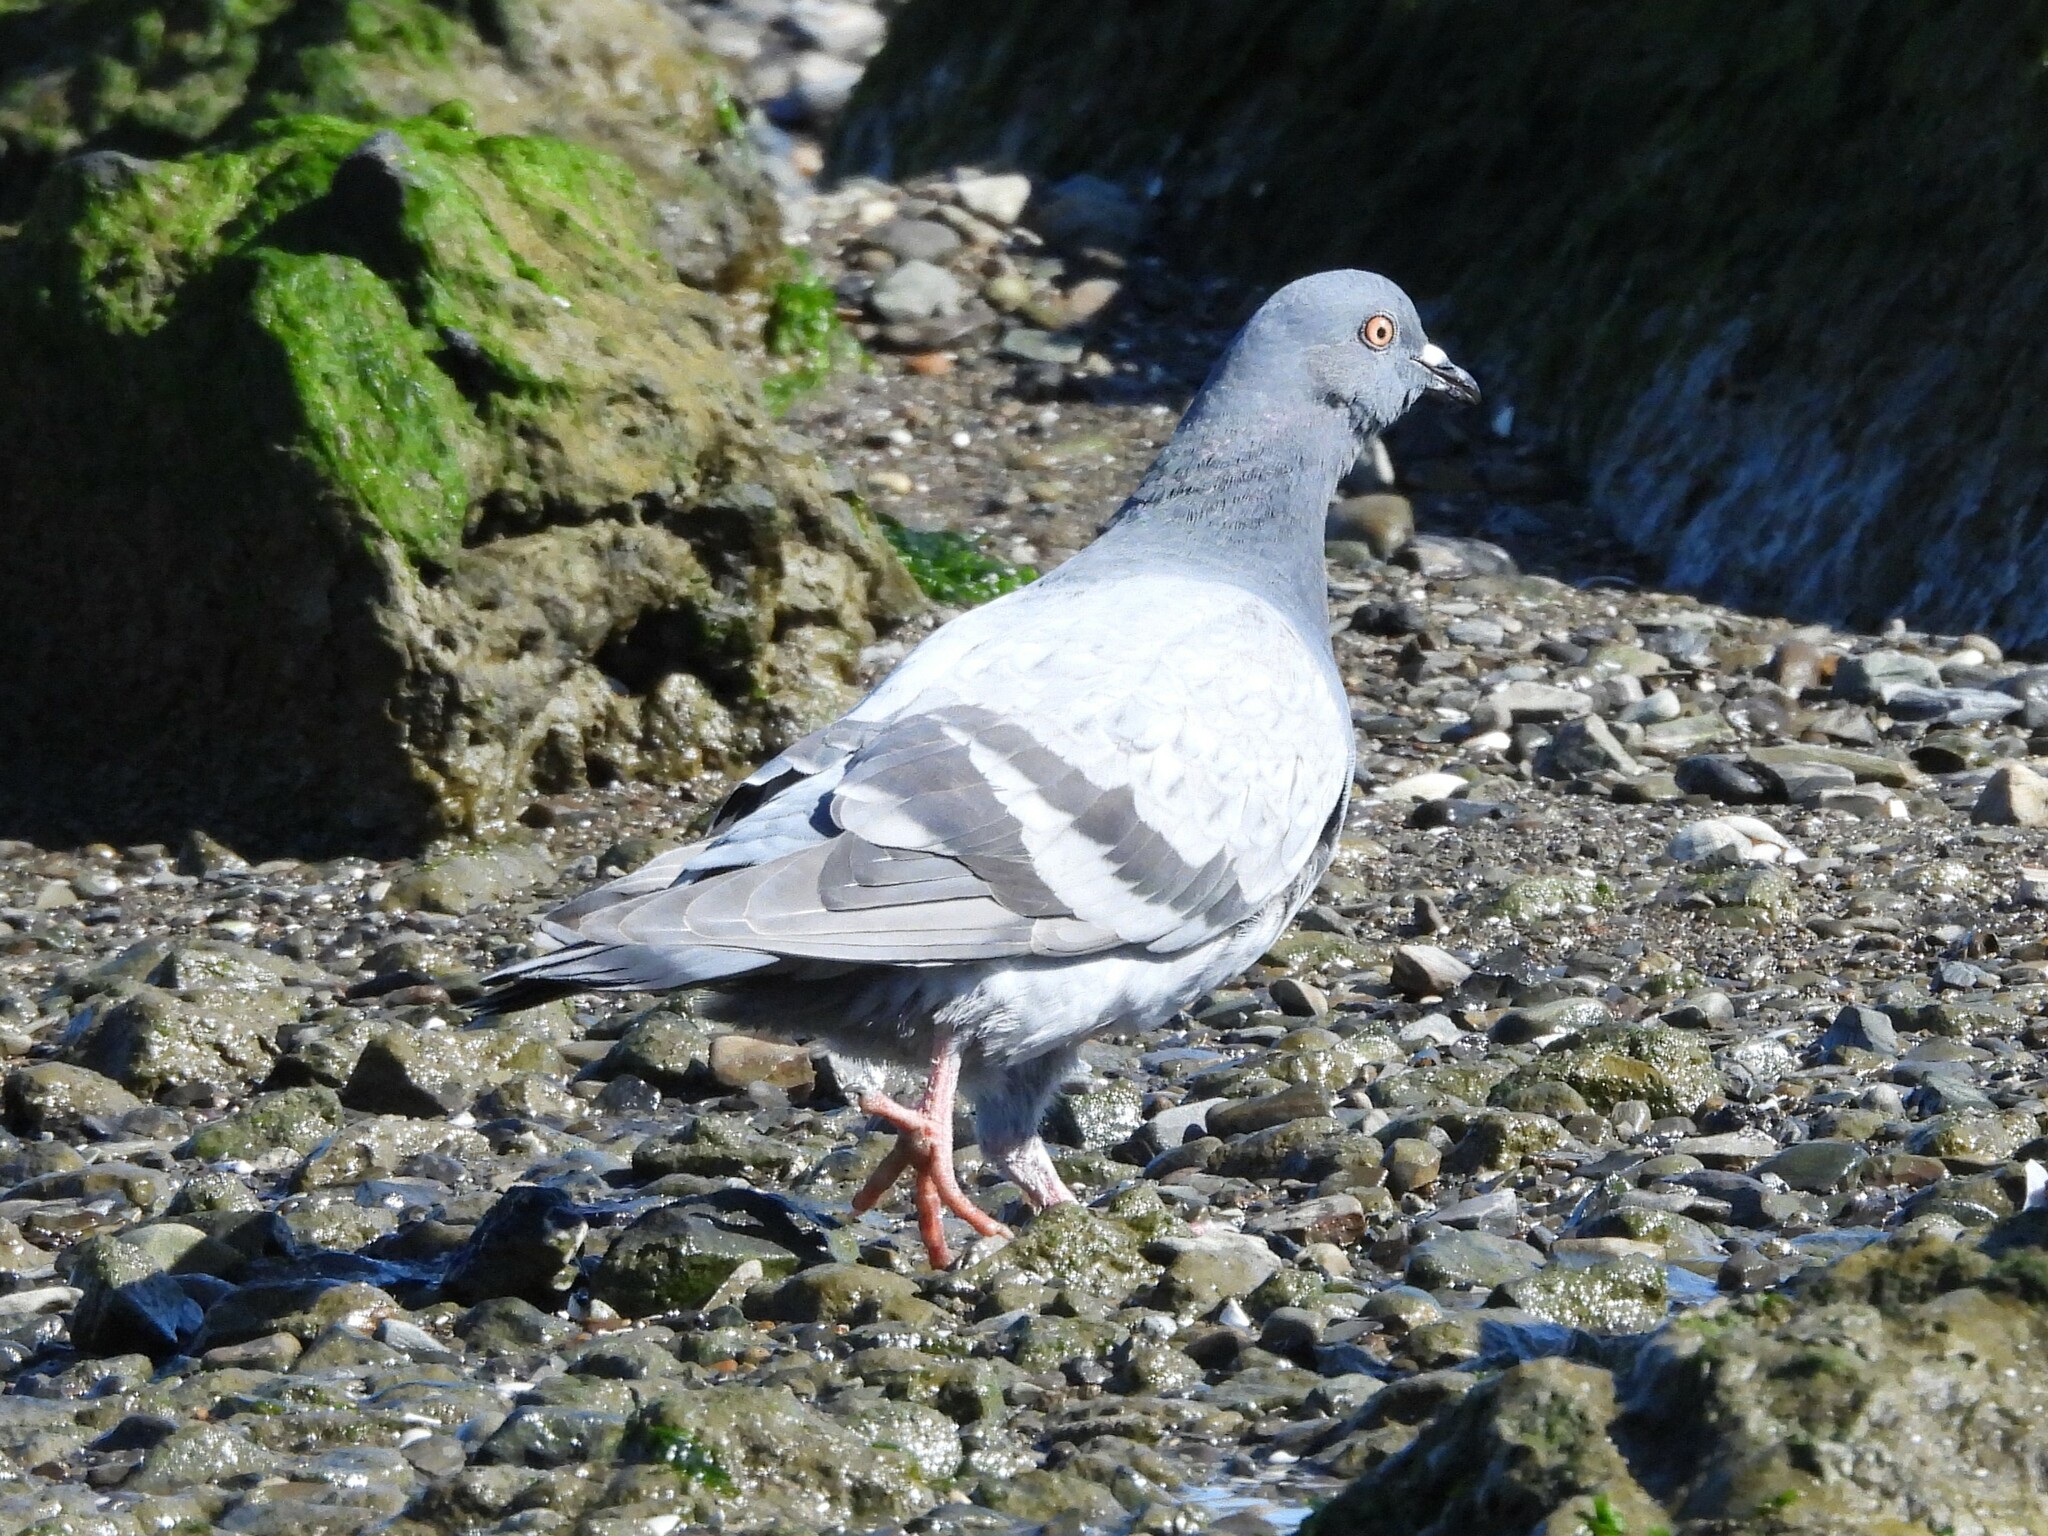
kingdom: Animalia
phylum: Chordata
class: Aves
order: Columbiformes
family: Columbidae
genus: Columba
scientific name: Columba livia
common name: Rock pigeon
